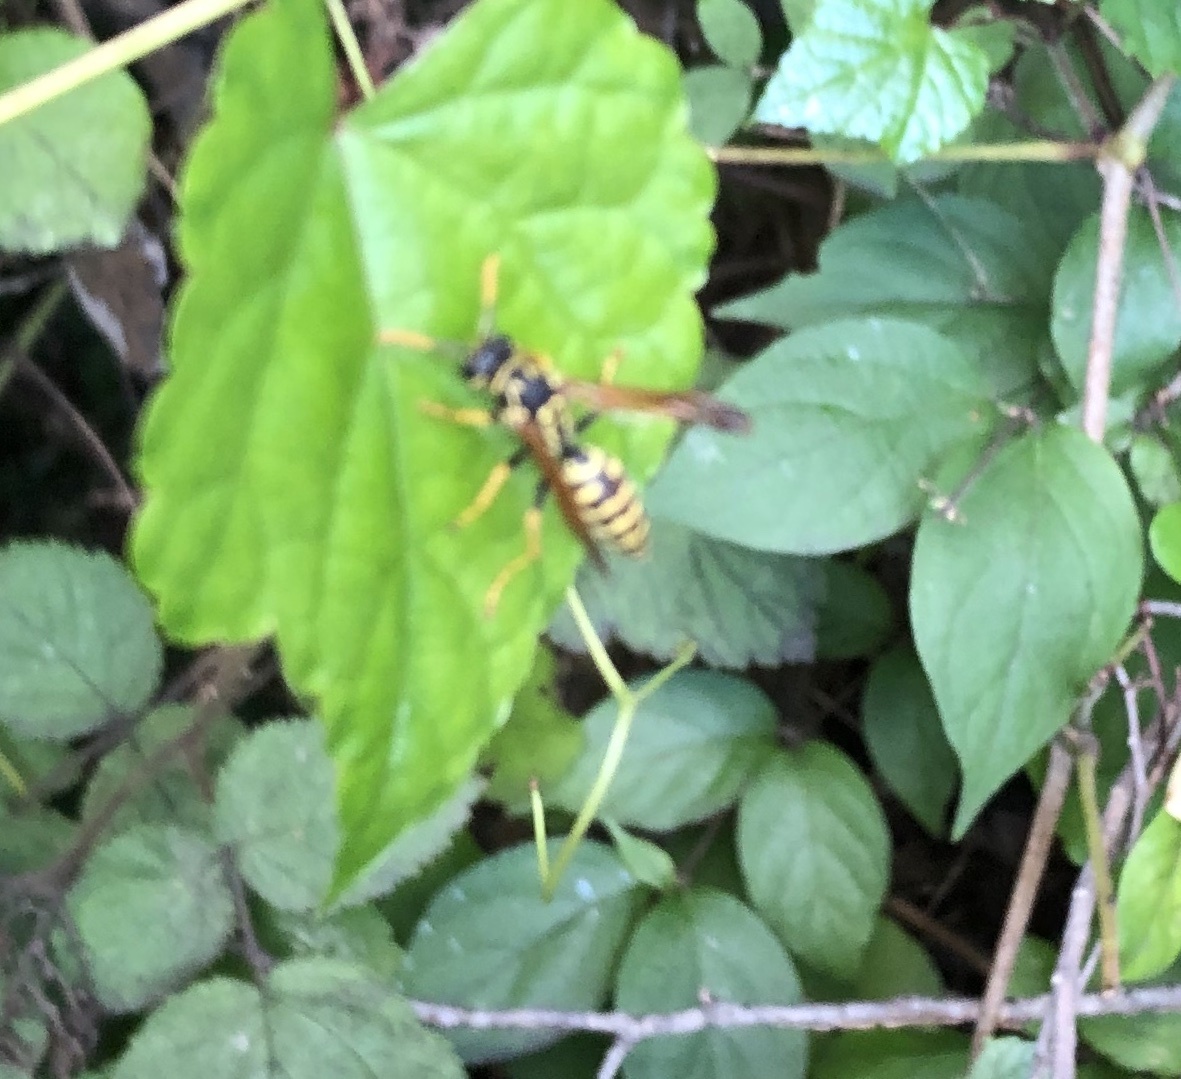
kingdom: Animalia
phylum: Arthropoda
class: Insecta
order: Hymenoptera
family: Eumenidae
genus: Polistes
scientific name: Polistes dominula
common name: Paper wasp
